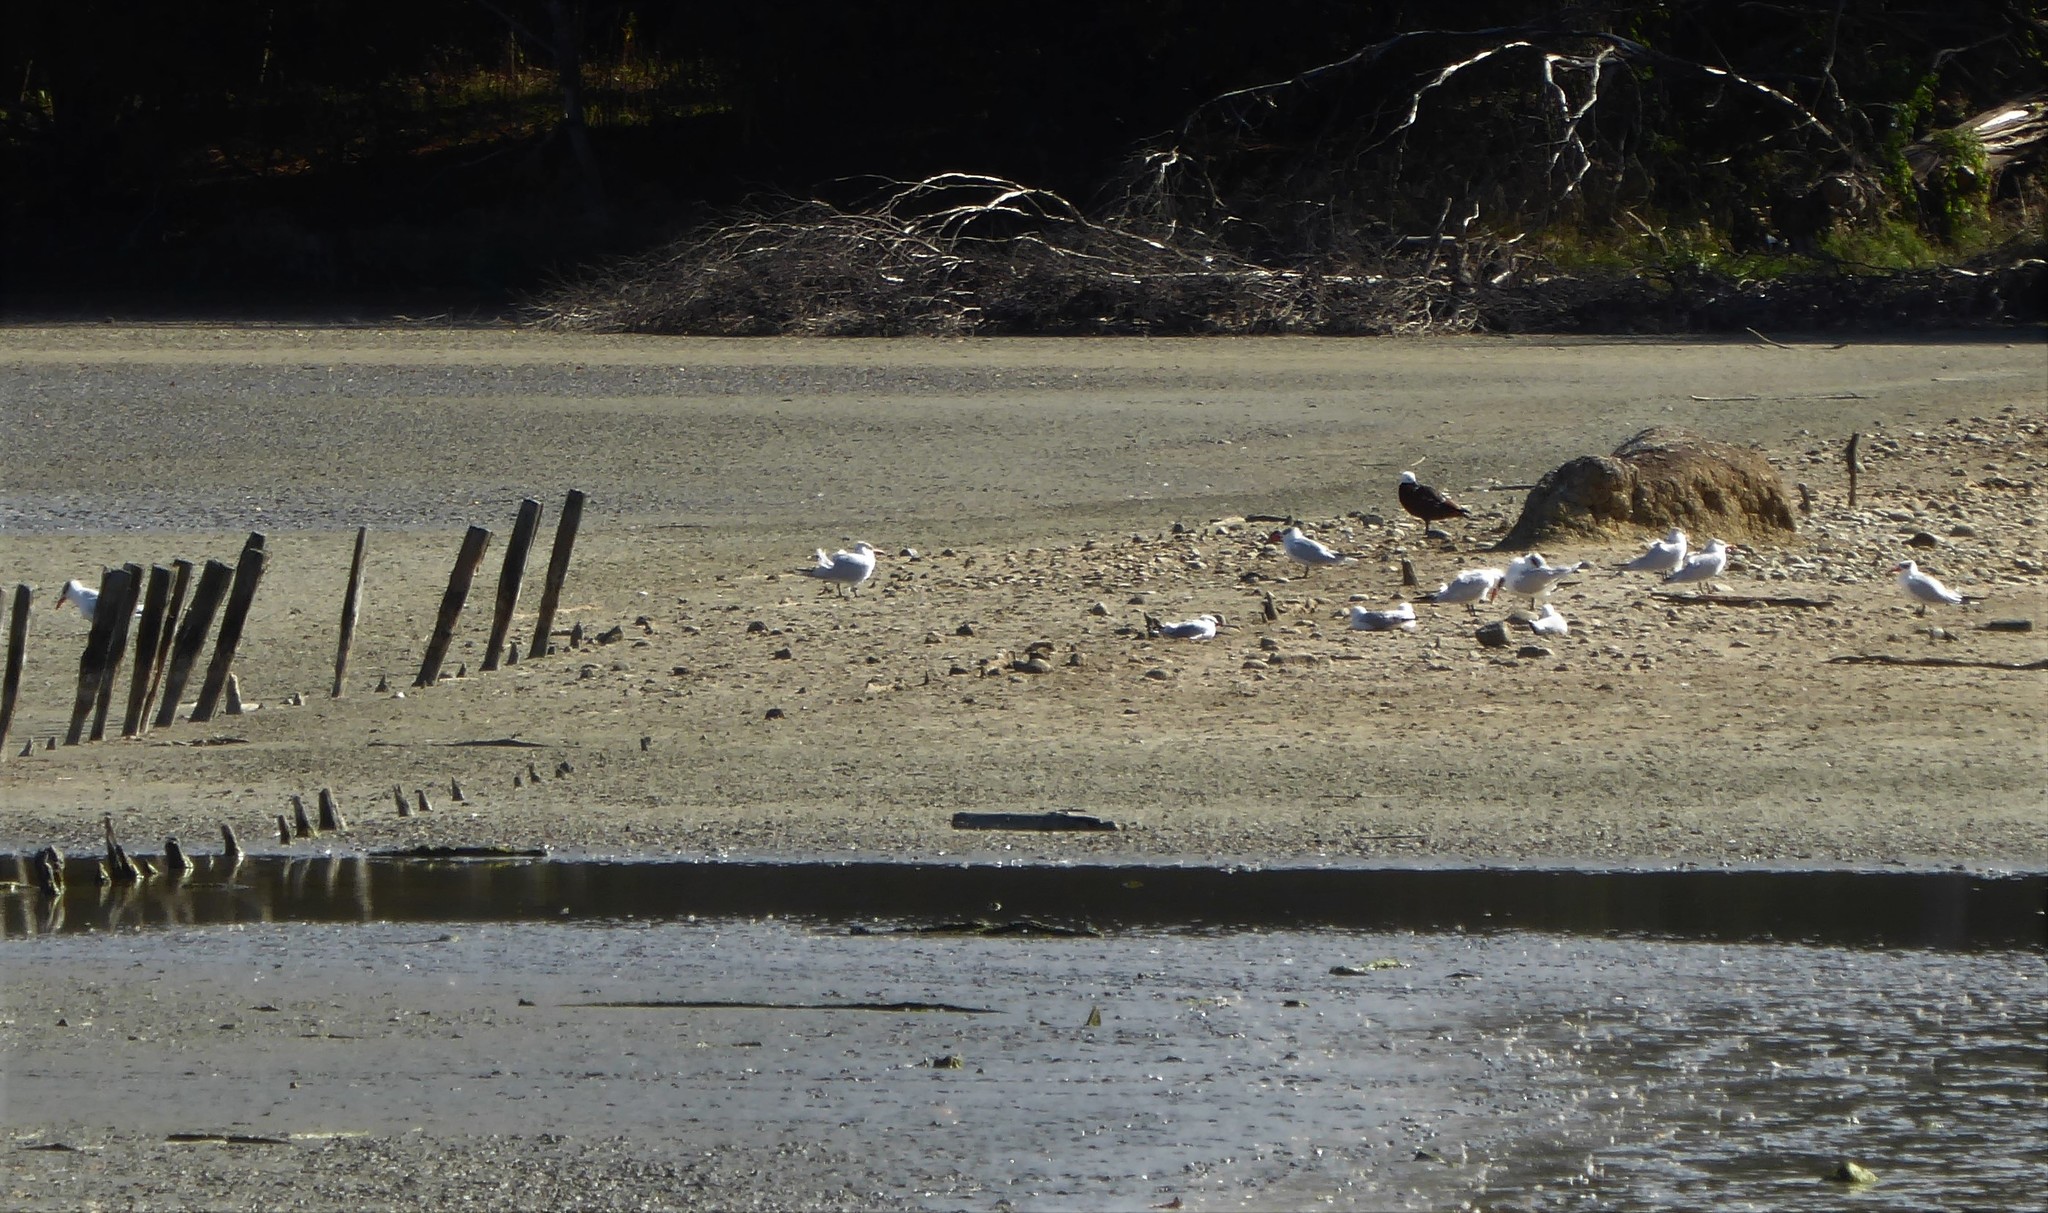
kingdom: Animalia
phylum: Chordata
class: Aves
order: Charadriiformes
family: Laridae
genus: Hydroprogne
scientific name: Hydroprogne caspia
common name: Caspian tern
